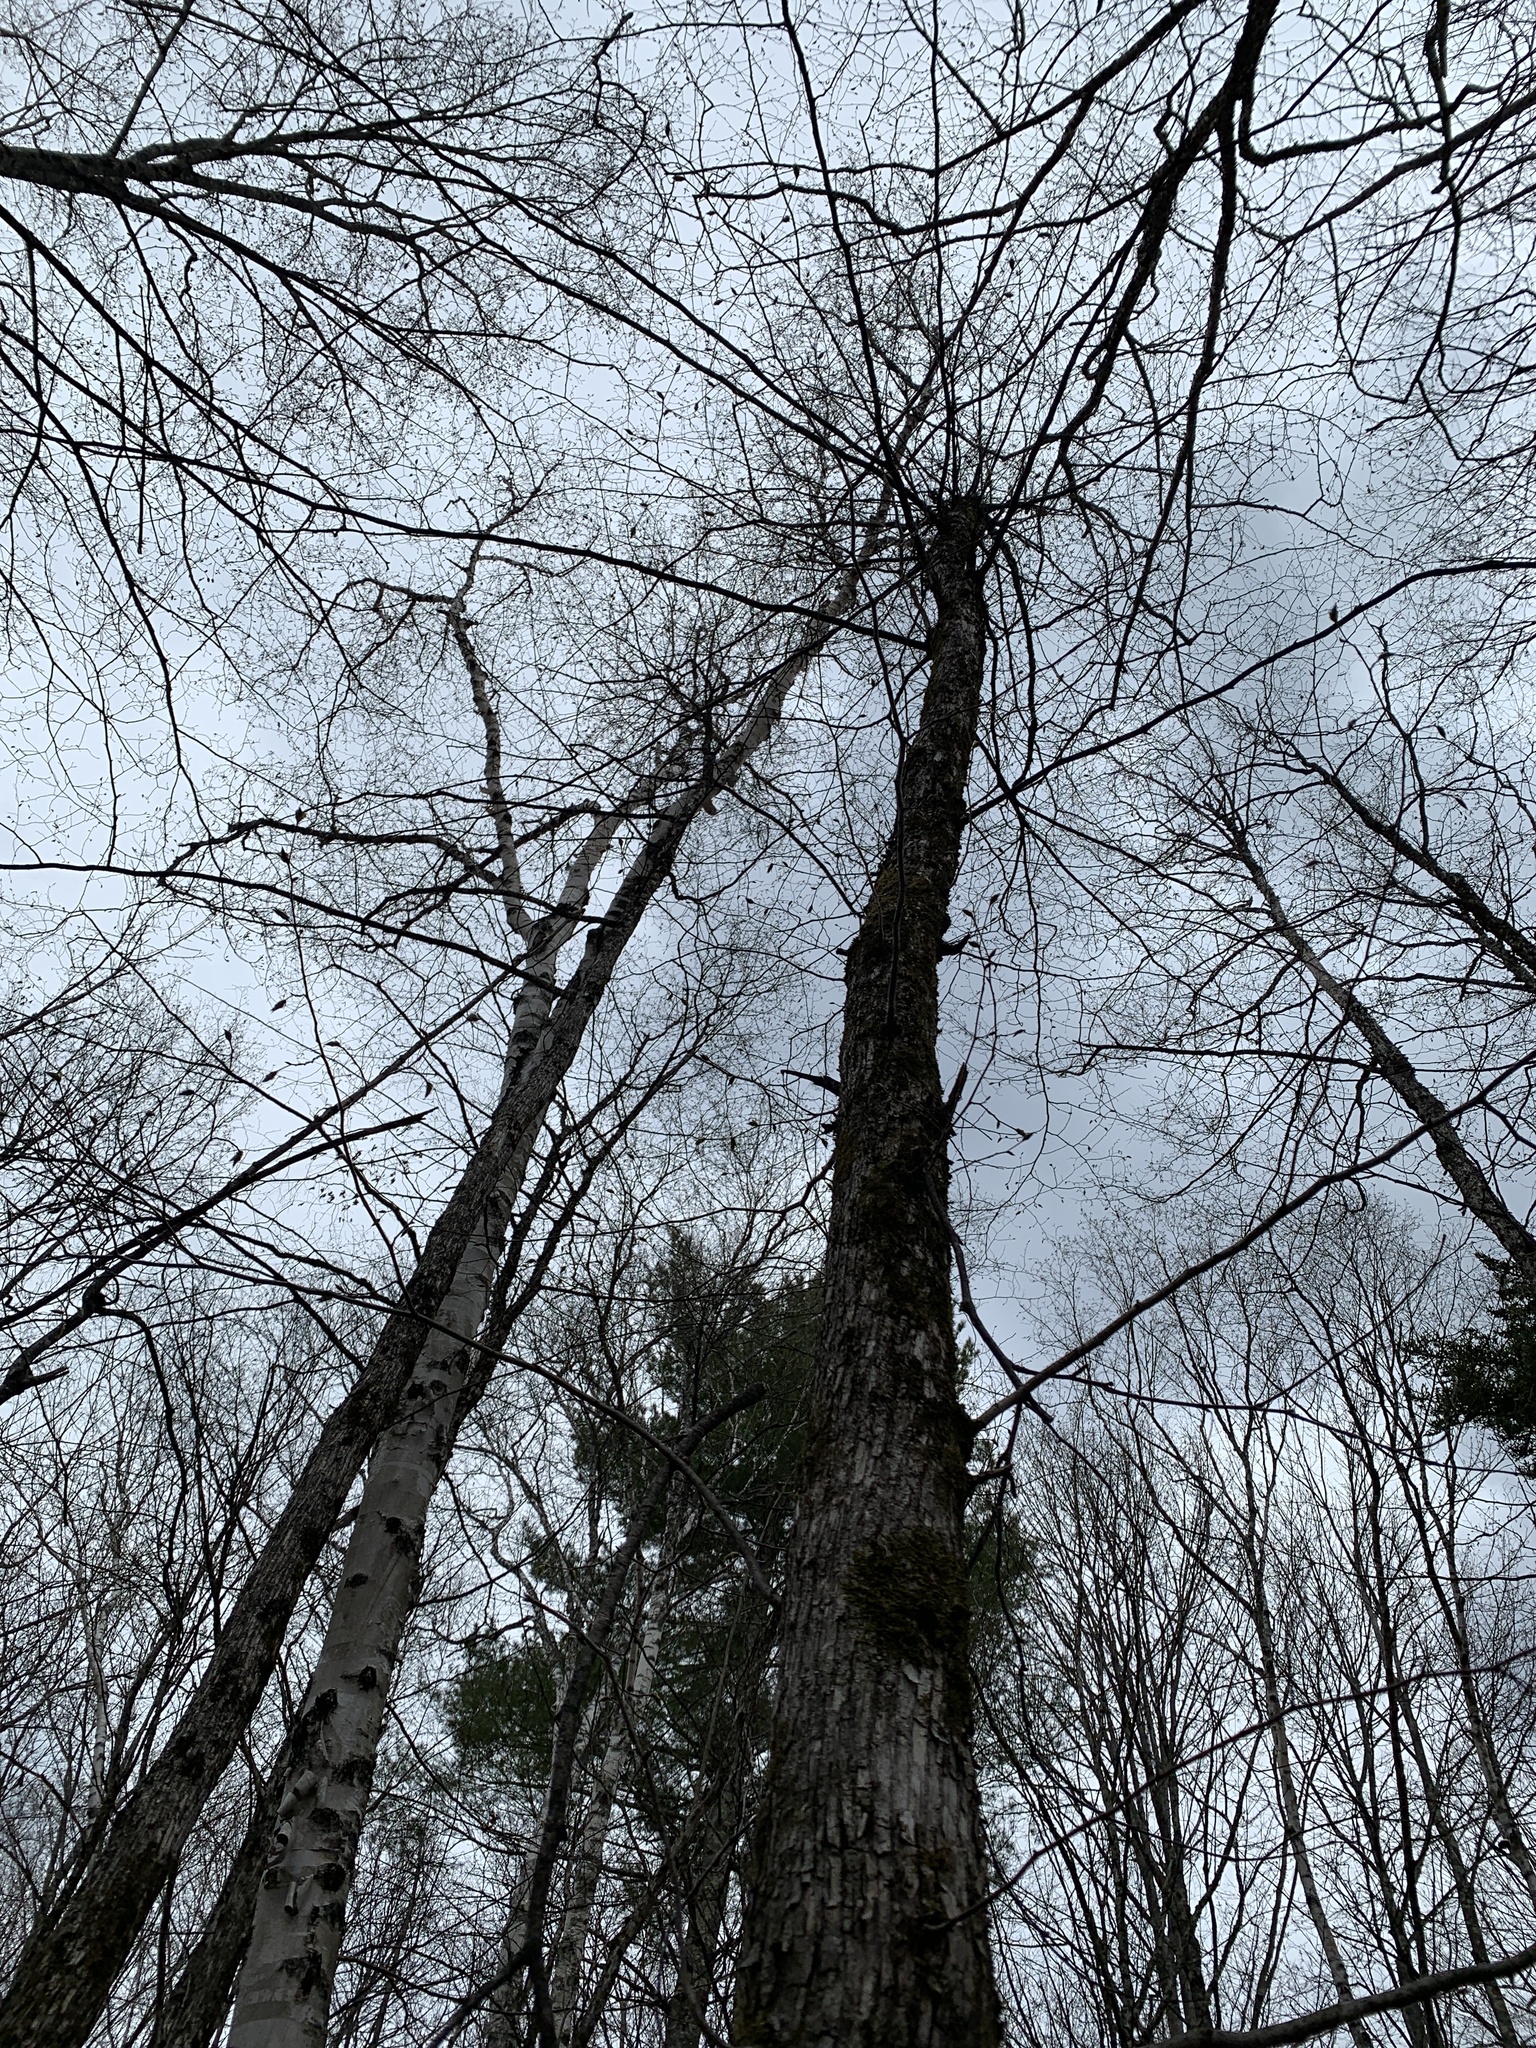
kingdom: Plantae
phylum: Tracheophyta
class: Magnoliopsida
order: Fagales
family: Betulaceae
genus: Ostrya
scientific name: Ostrya virginiana
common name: Ironwood
